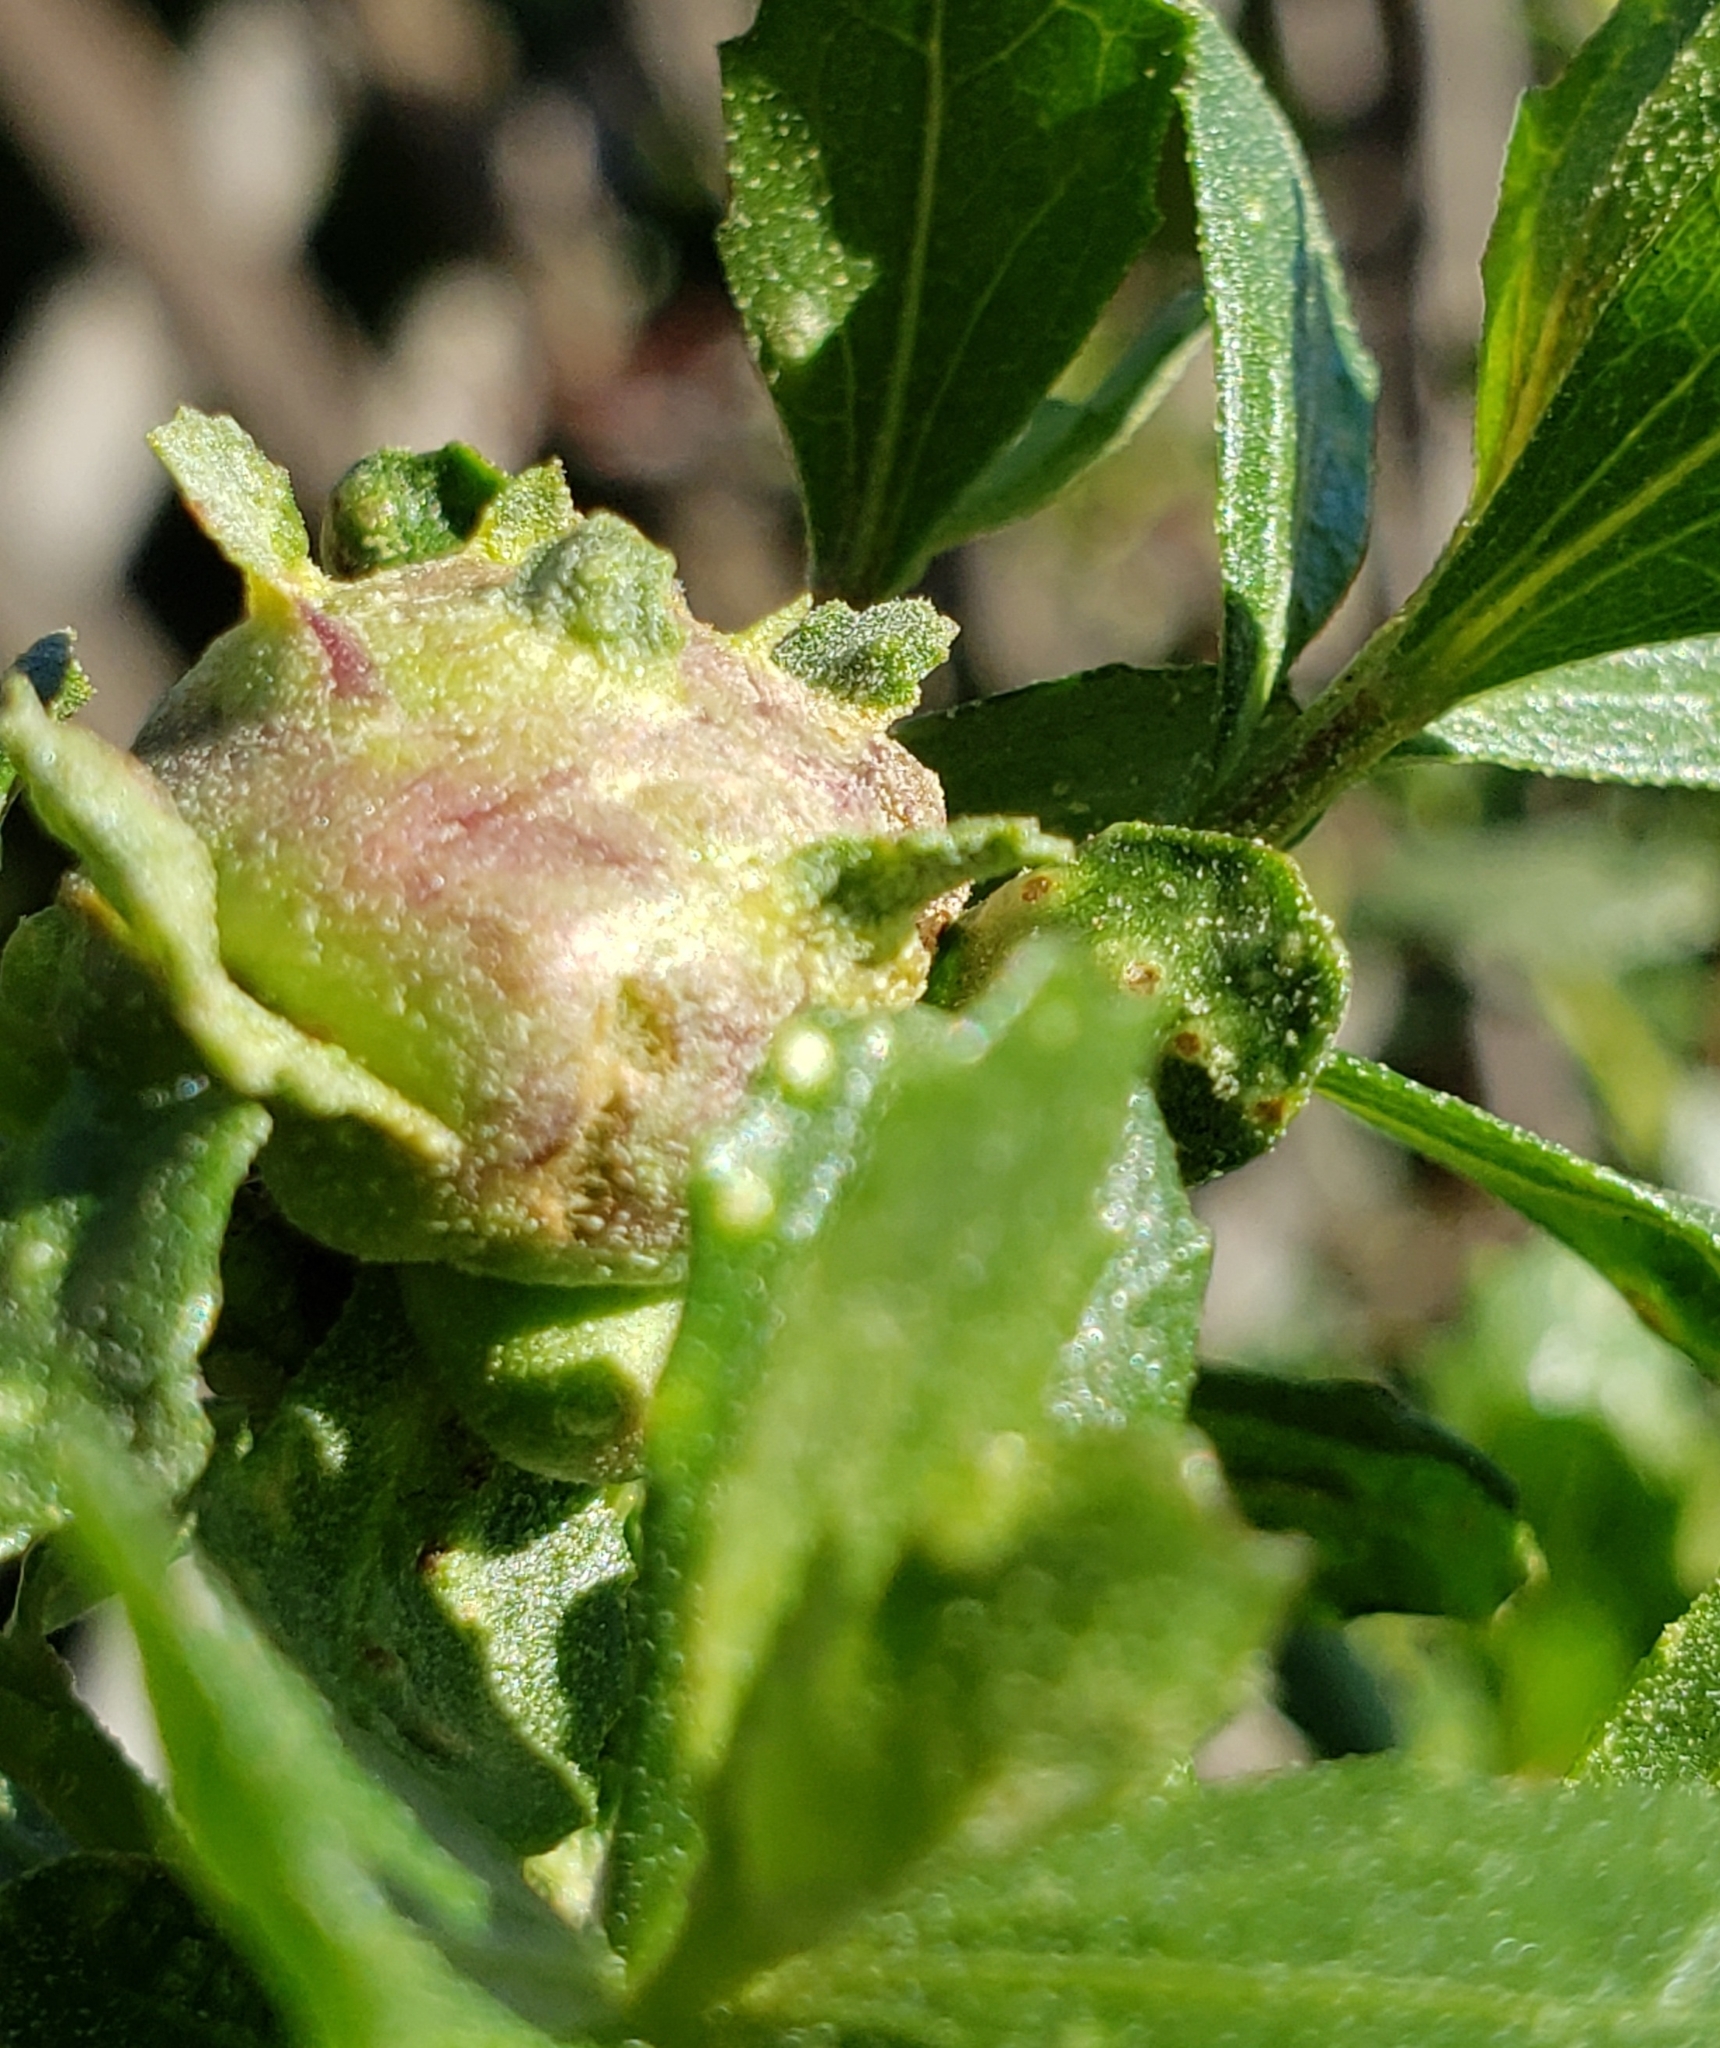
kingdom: Animalia
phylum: Arthropoda
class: Insecta
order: Diptera
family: Cecidomyiidae
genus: Rhopalomyia
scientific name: Rhopalomyia californica
